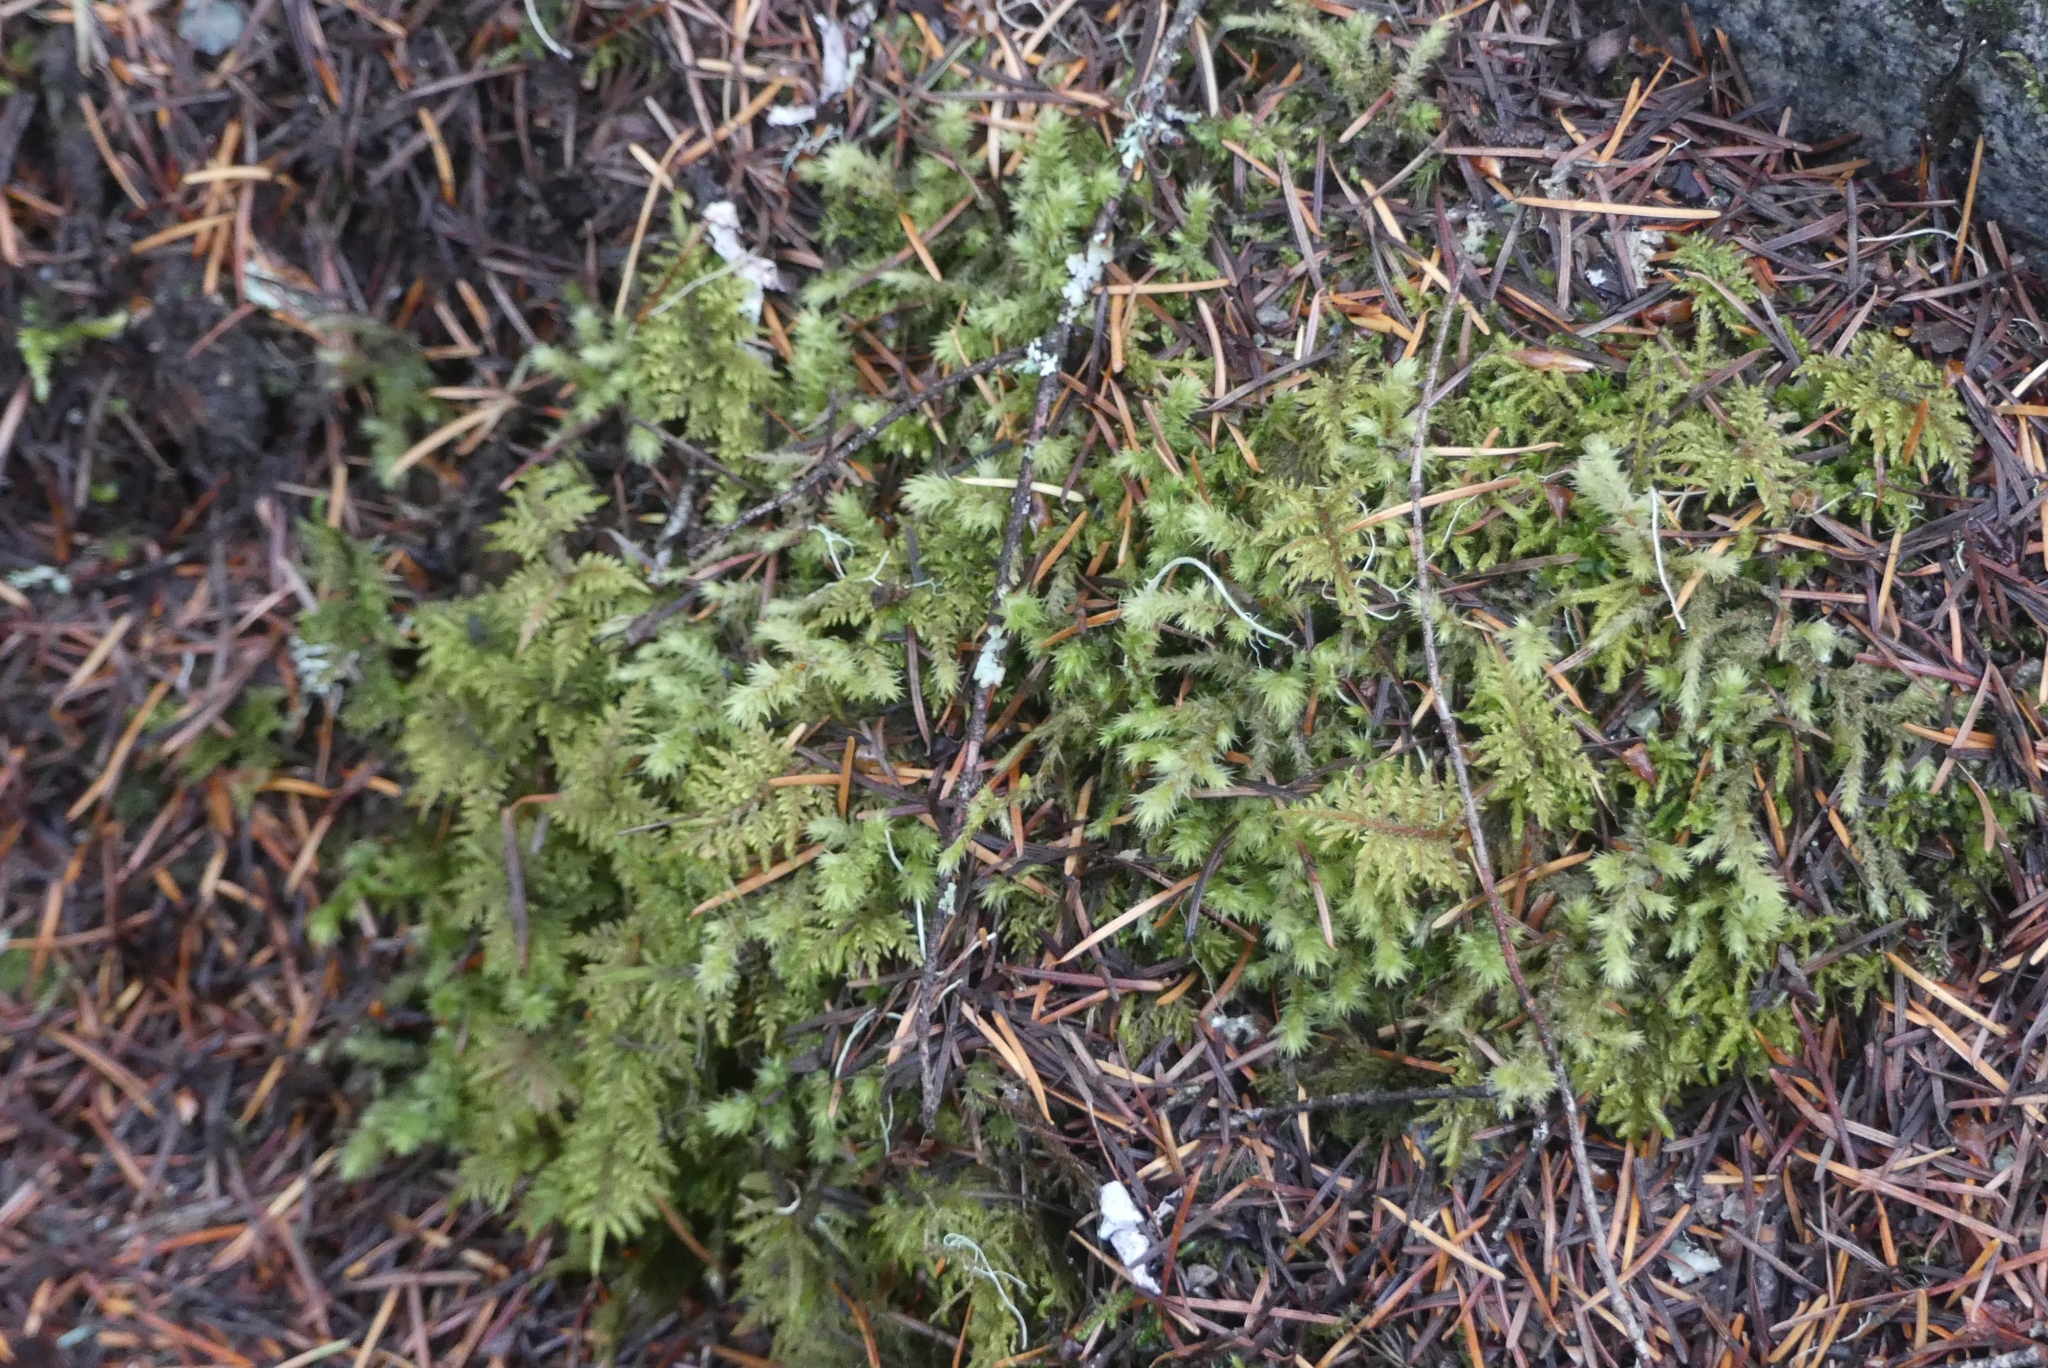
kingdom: Plantae
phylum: Bryophyta
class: Bryopsida
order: Hypnales
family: Hylocomiaceae
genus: Hylocomium
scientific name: Hylocomium splendens
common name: Stairstep moss
